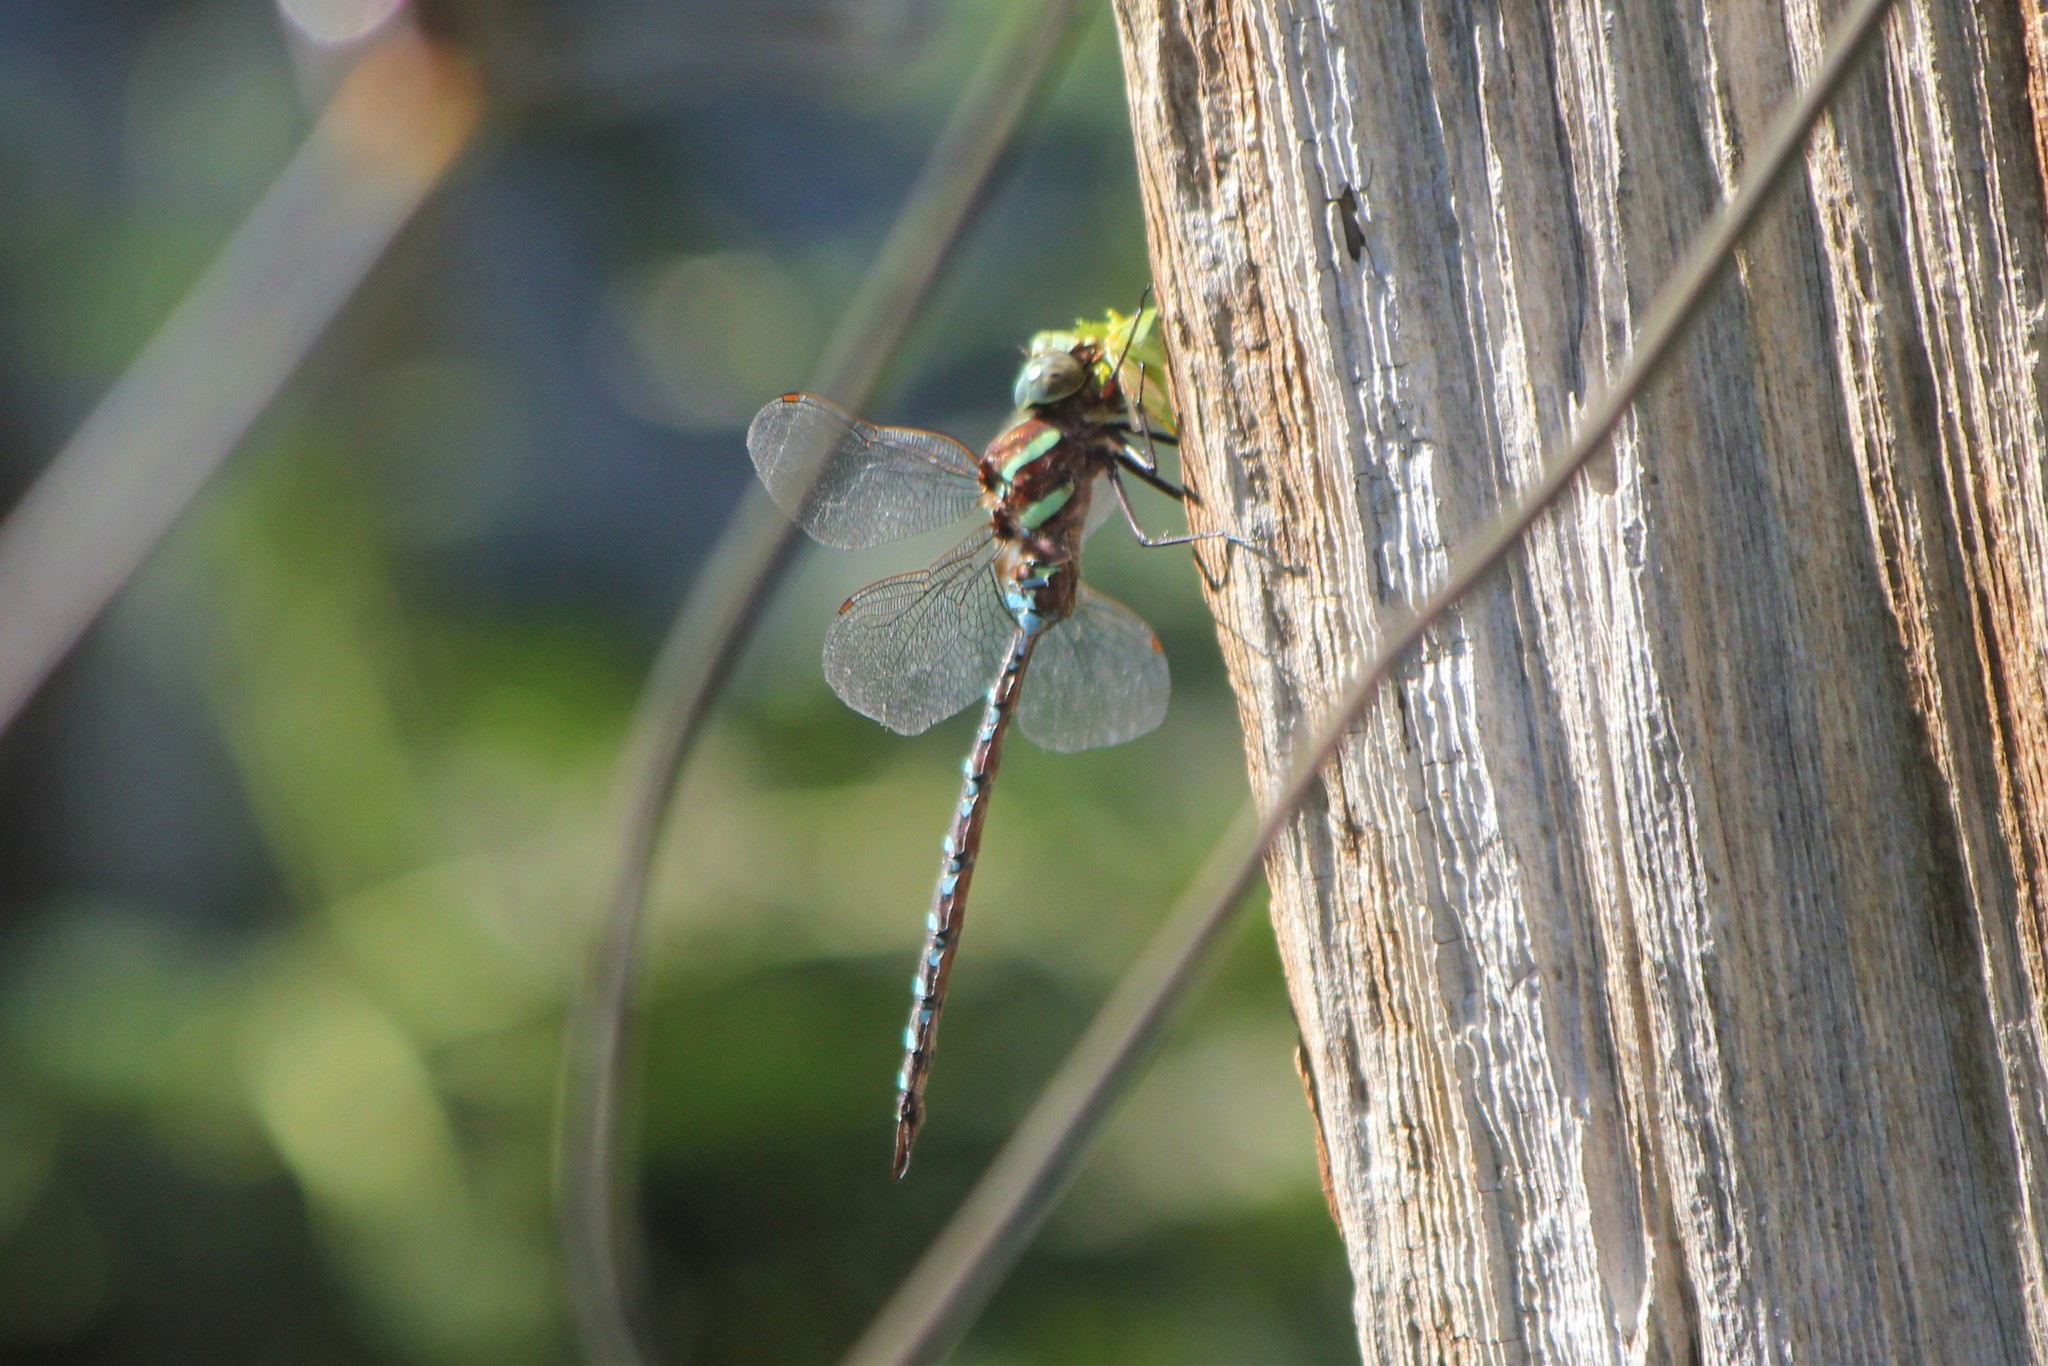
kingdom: Animalia
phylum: Arthropoda
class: Insecta
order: Odonata
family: Aeshnidae
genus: Aeshna
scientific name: Aeshna tuberculifera
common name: Aeschne à tubercules
